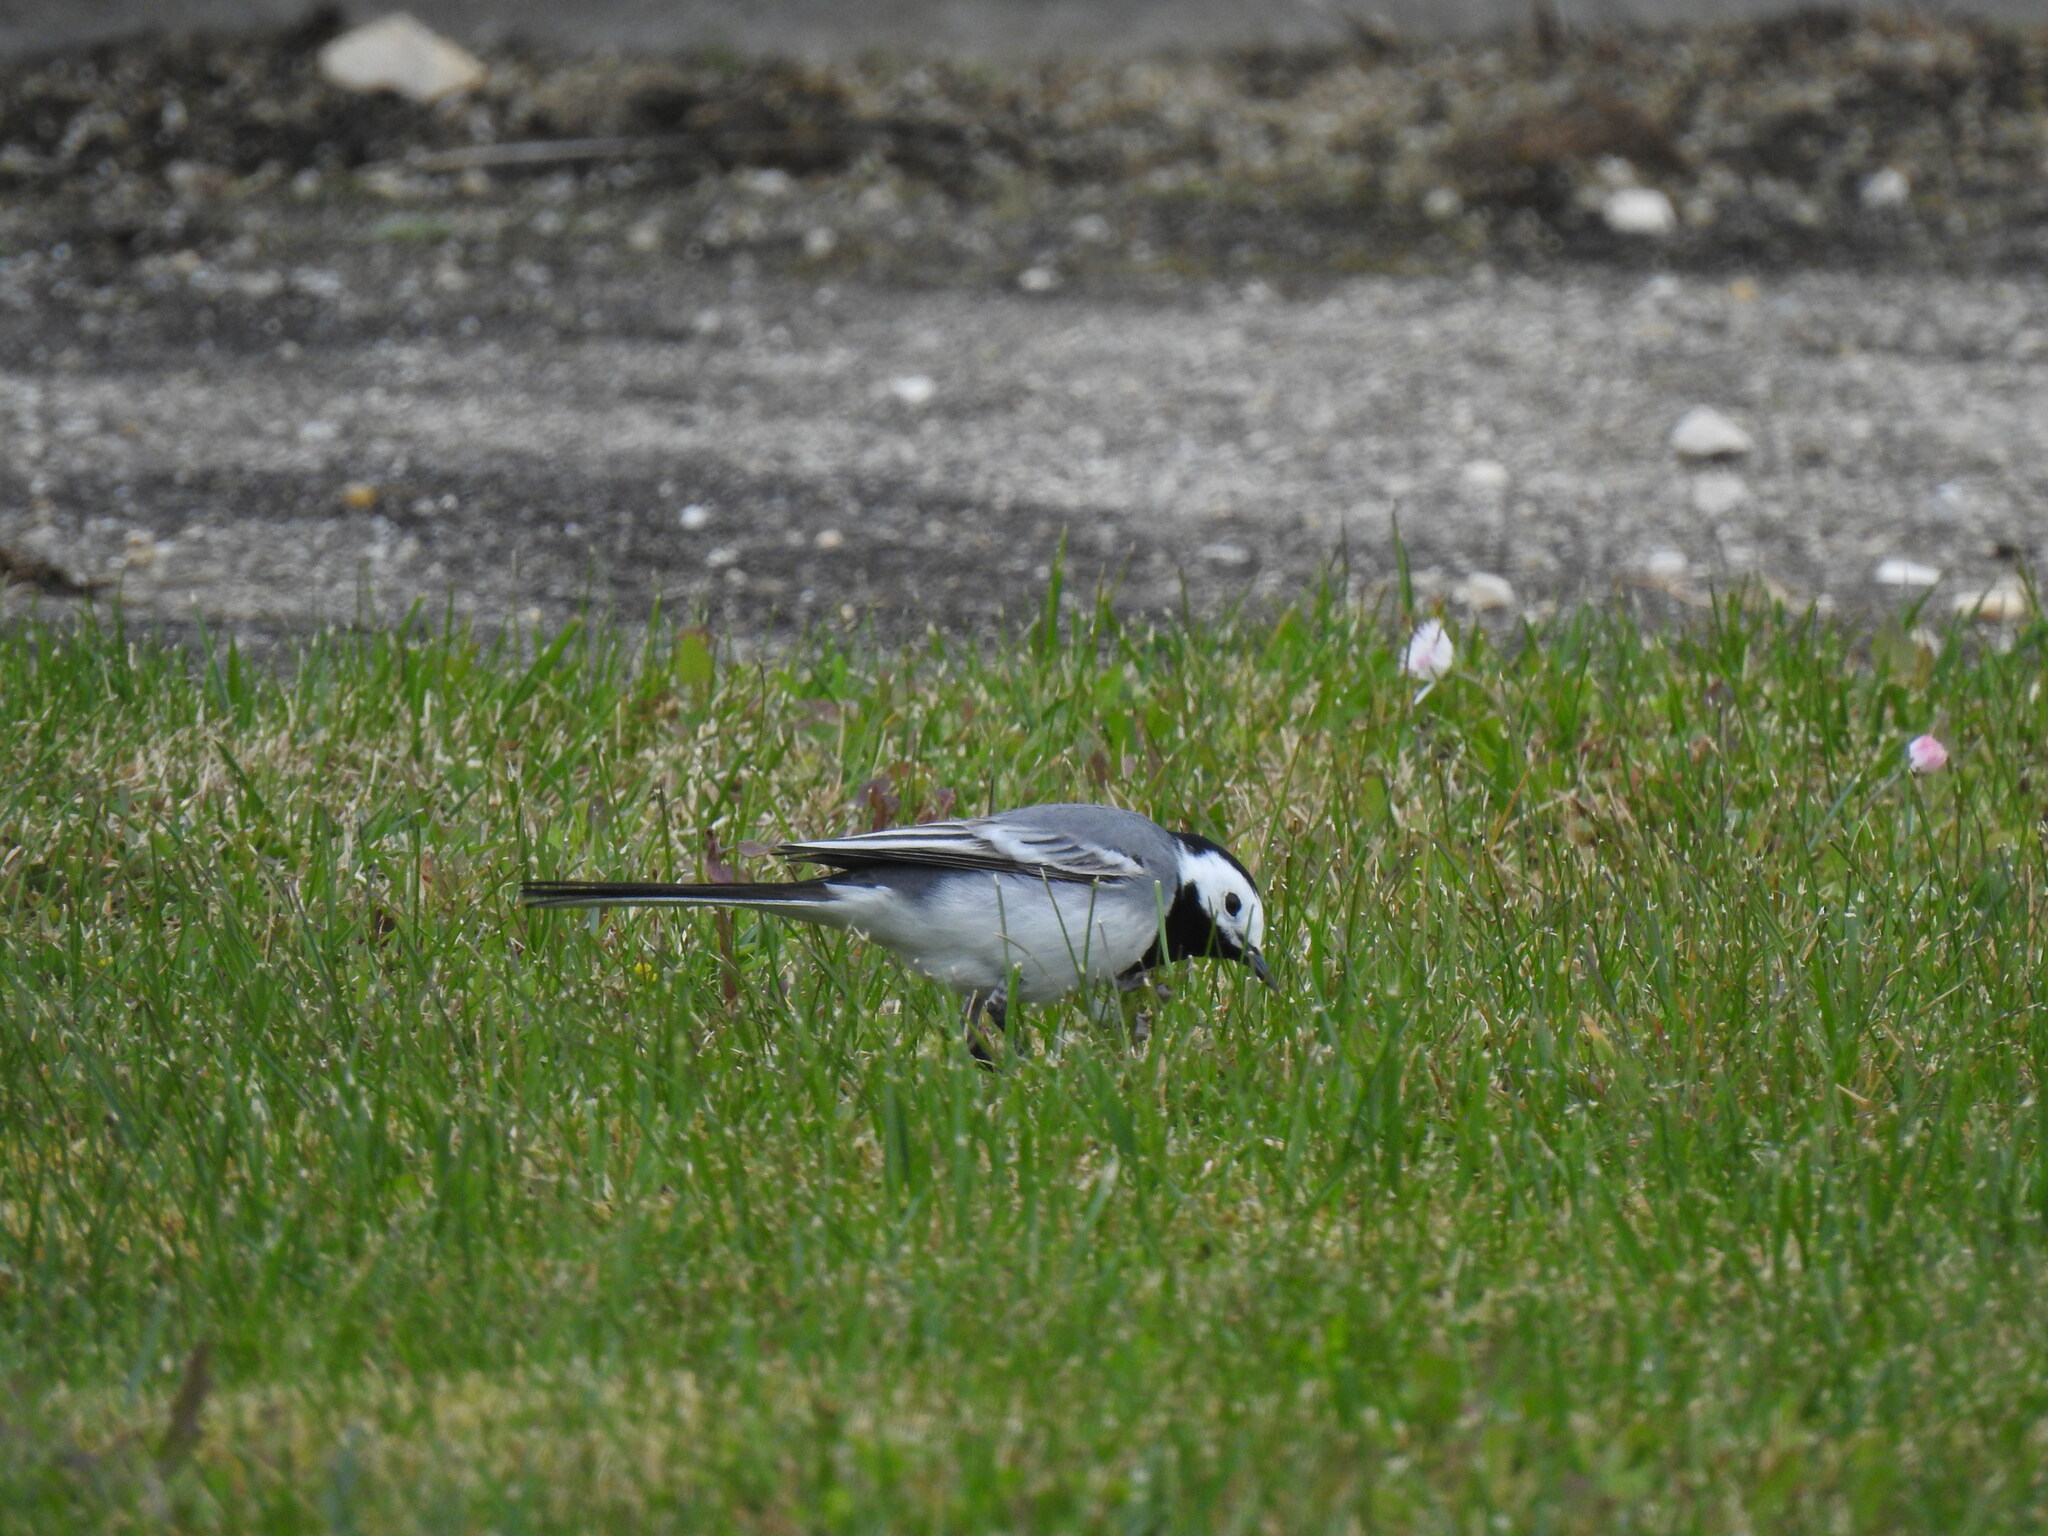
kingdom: Animalia
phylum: Chordata
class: Aves
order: Passeriformes
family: Motacillidae
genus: Motacilla
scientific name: Motacilla alba
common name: White wagtail
